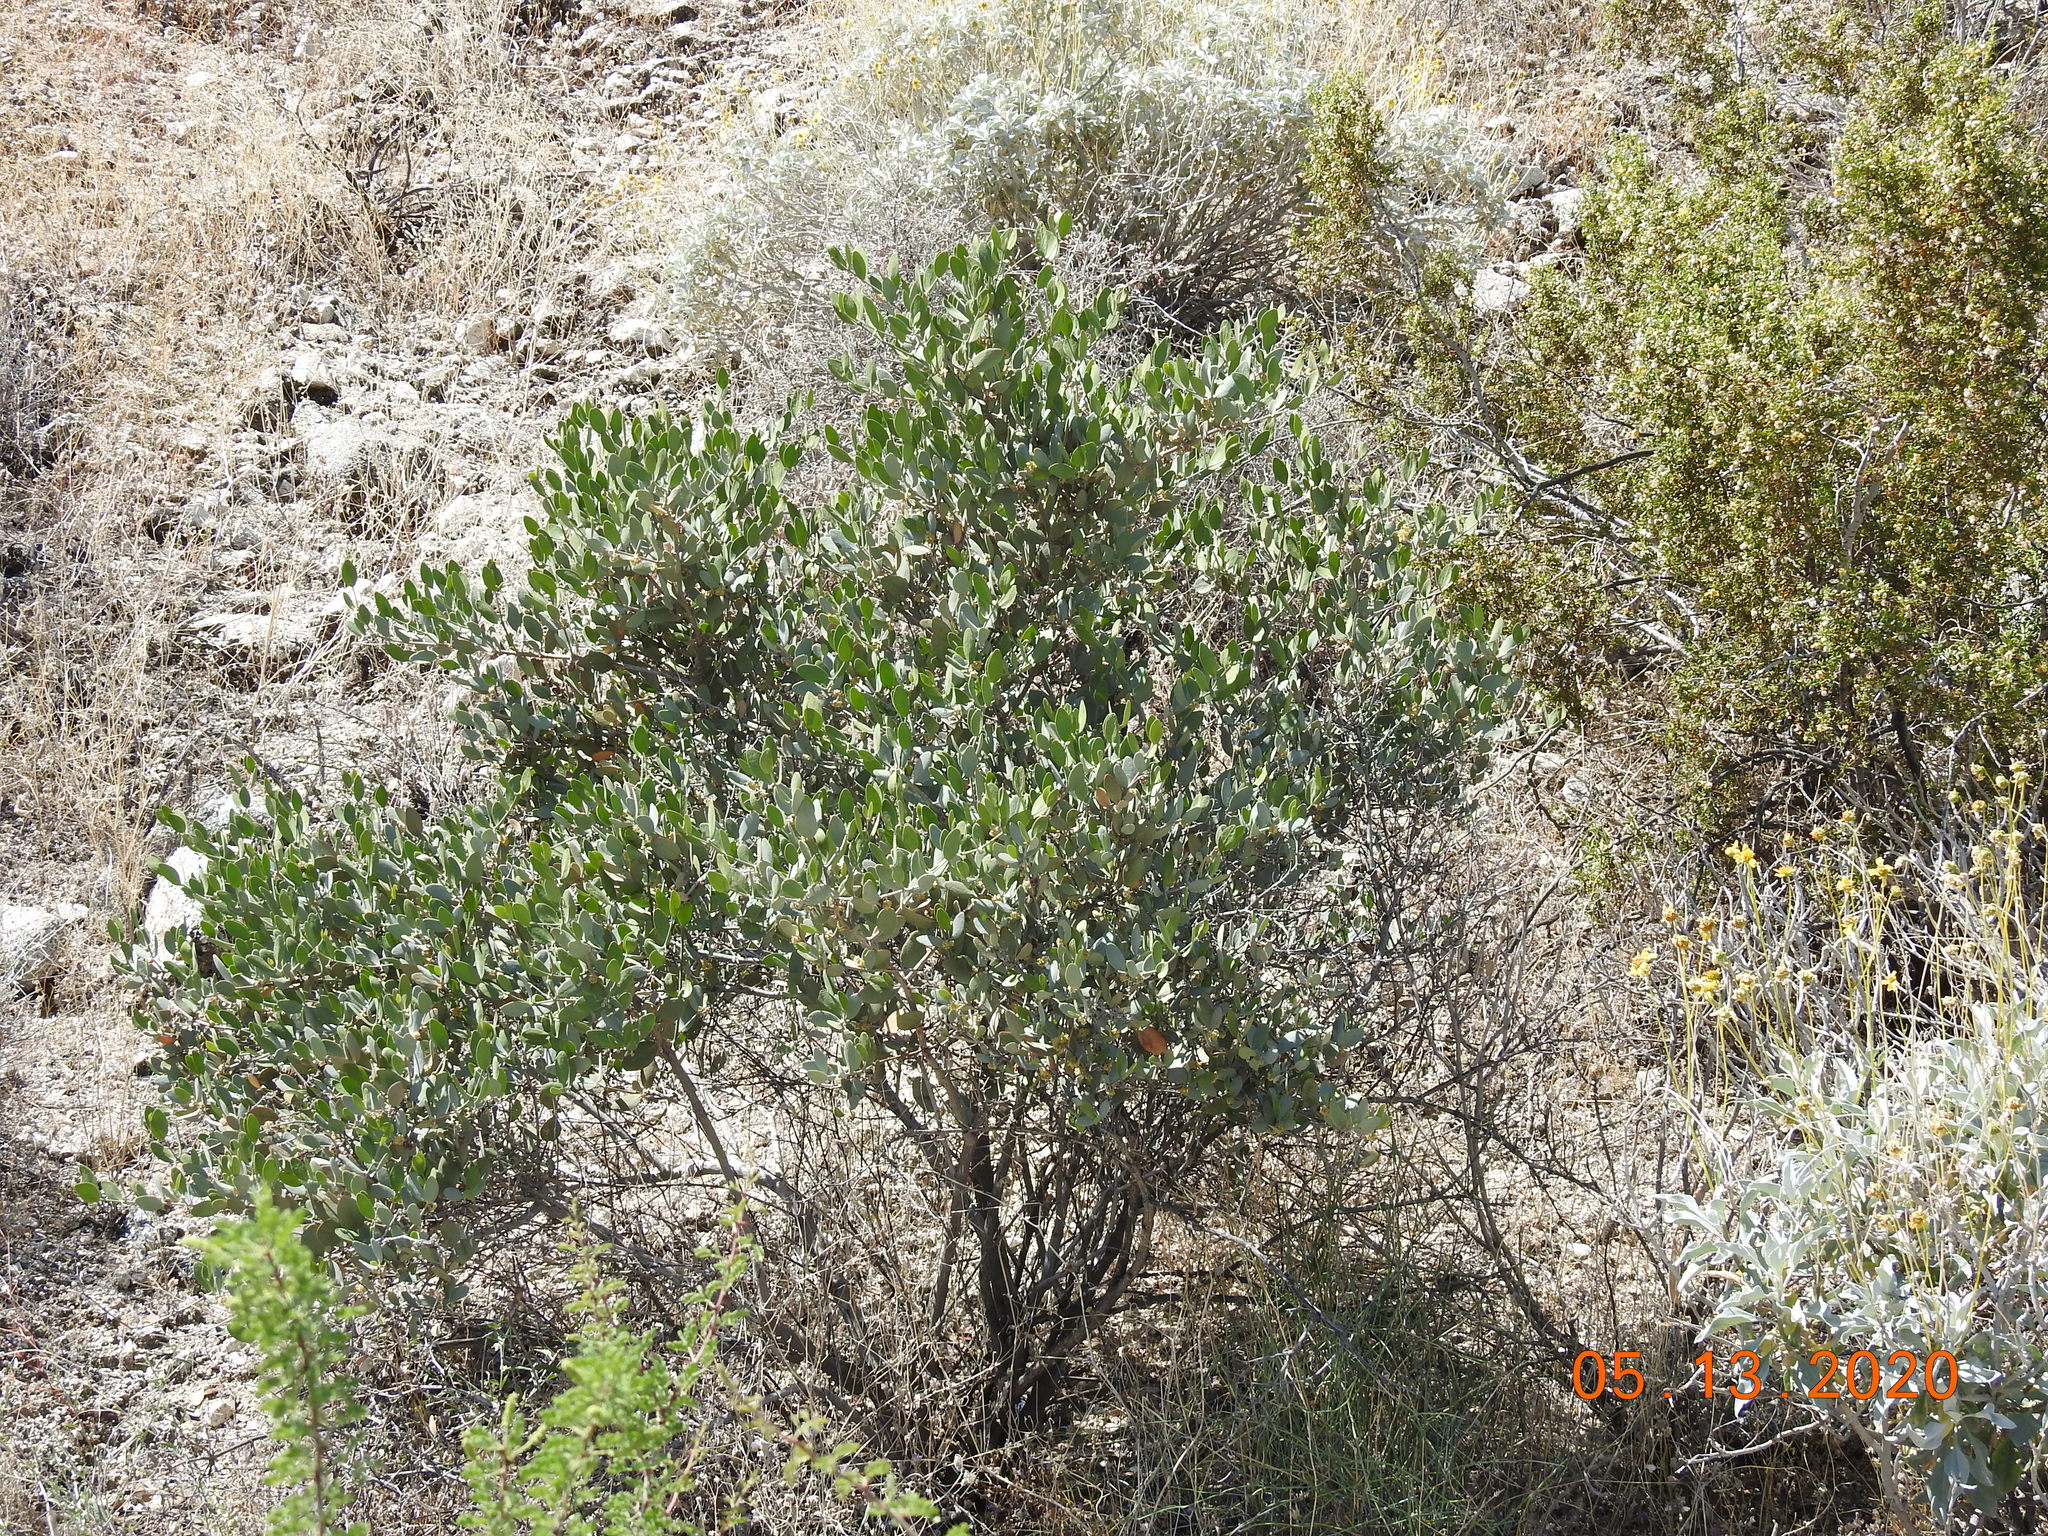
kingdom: Plantae
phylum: Tracheophyta
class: Magnoliopsida
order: Caryophyllales
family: Simmondsiaceae
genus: Simmondsia
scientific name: Simmondsia chinensis
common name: Jojoba
